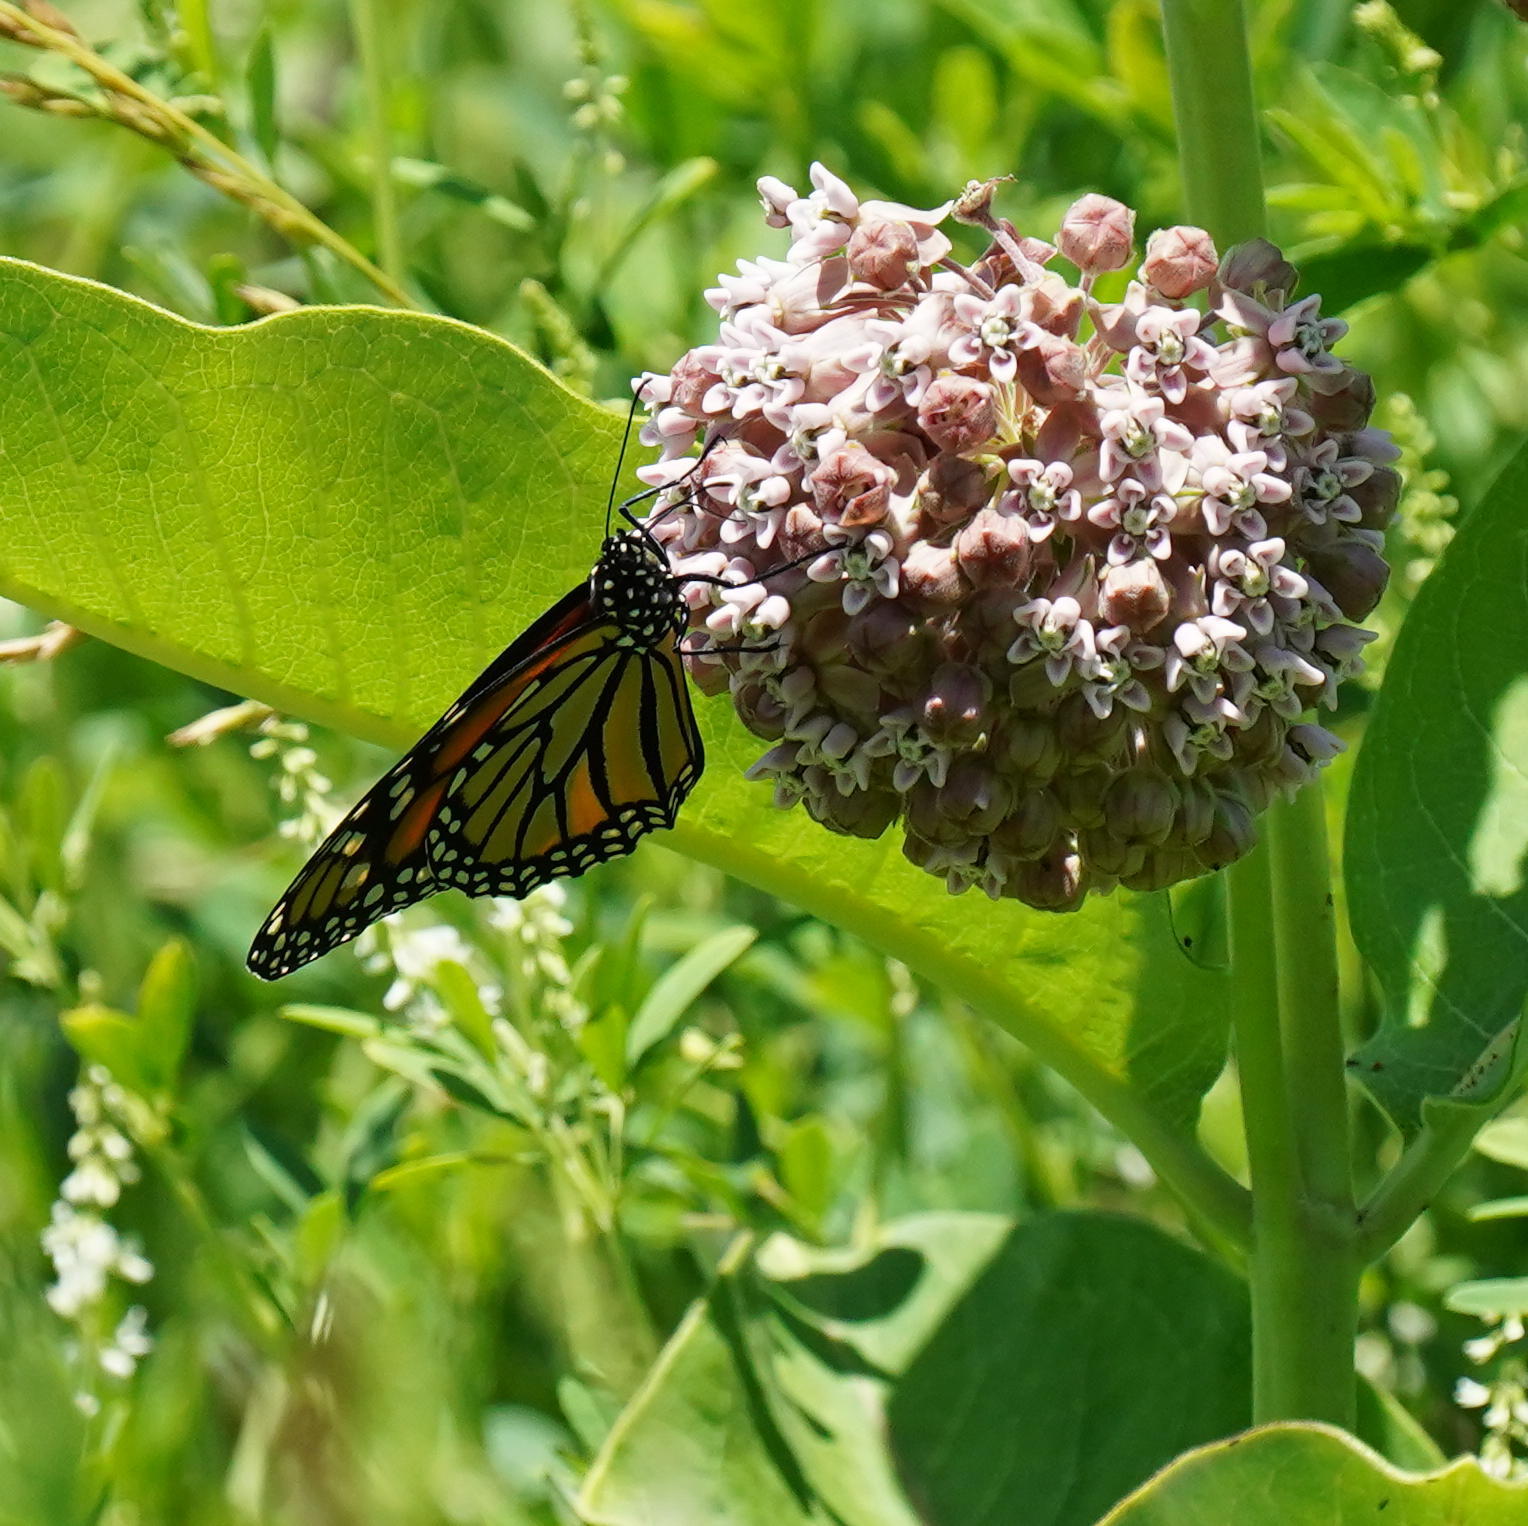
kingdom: Animalia
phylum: Arthropoda
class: Insecta
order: Lepidoptera
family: Nymphalidae
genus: Danaus
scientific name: Danaus plexippus
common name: Monarch
